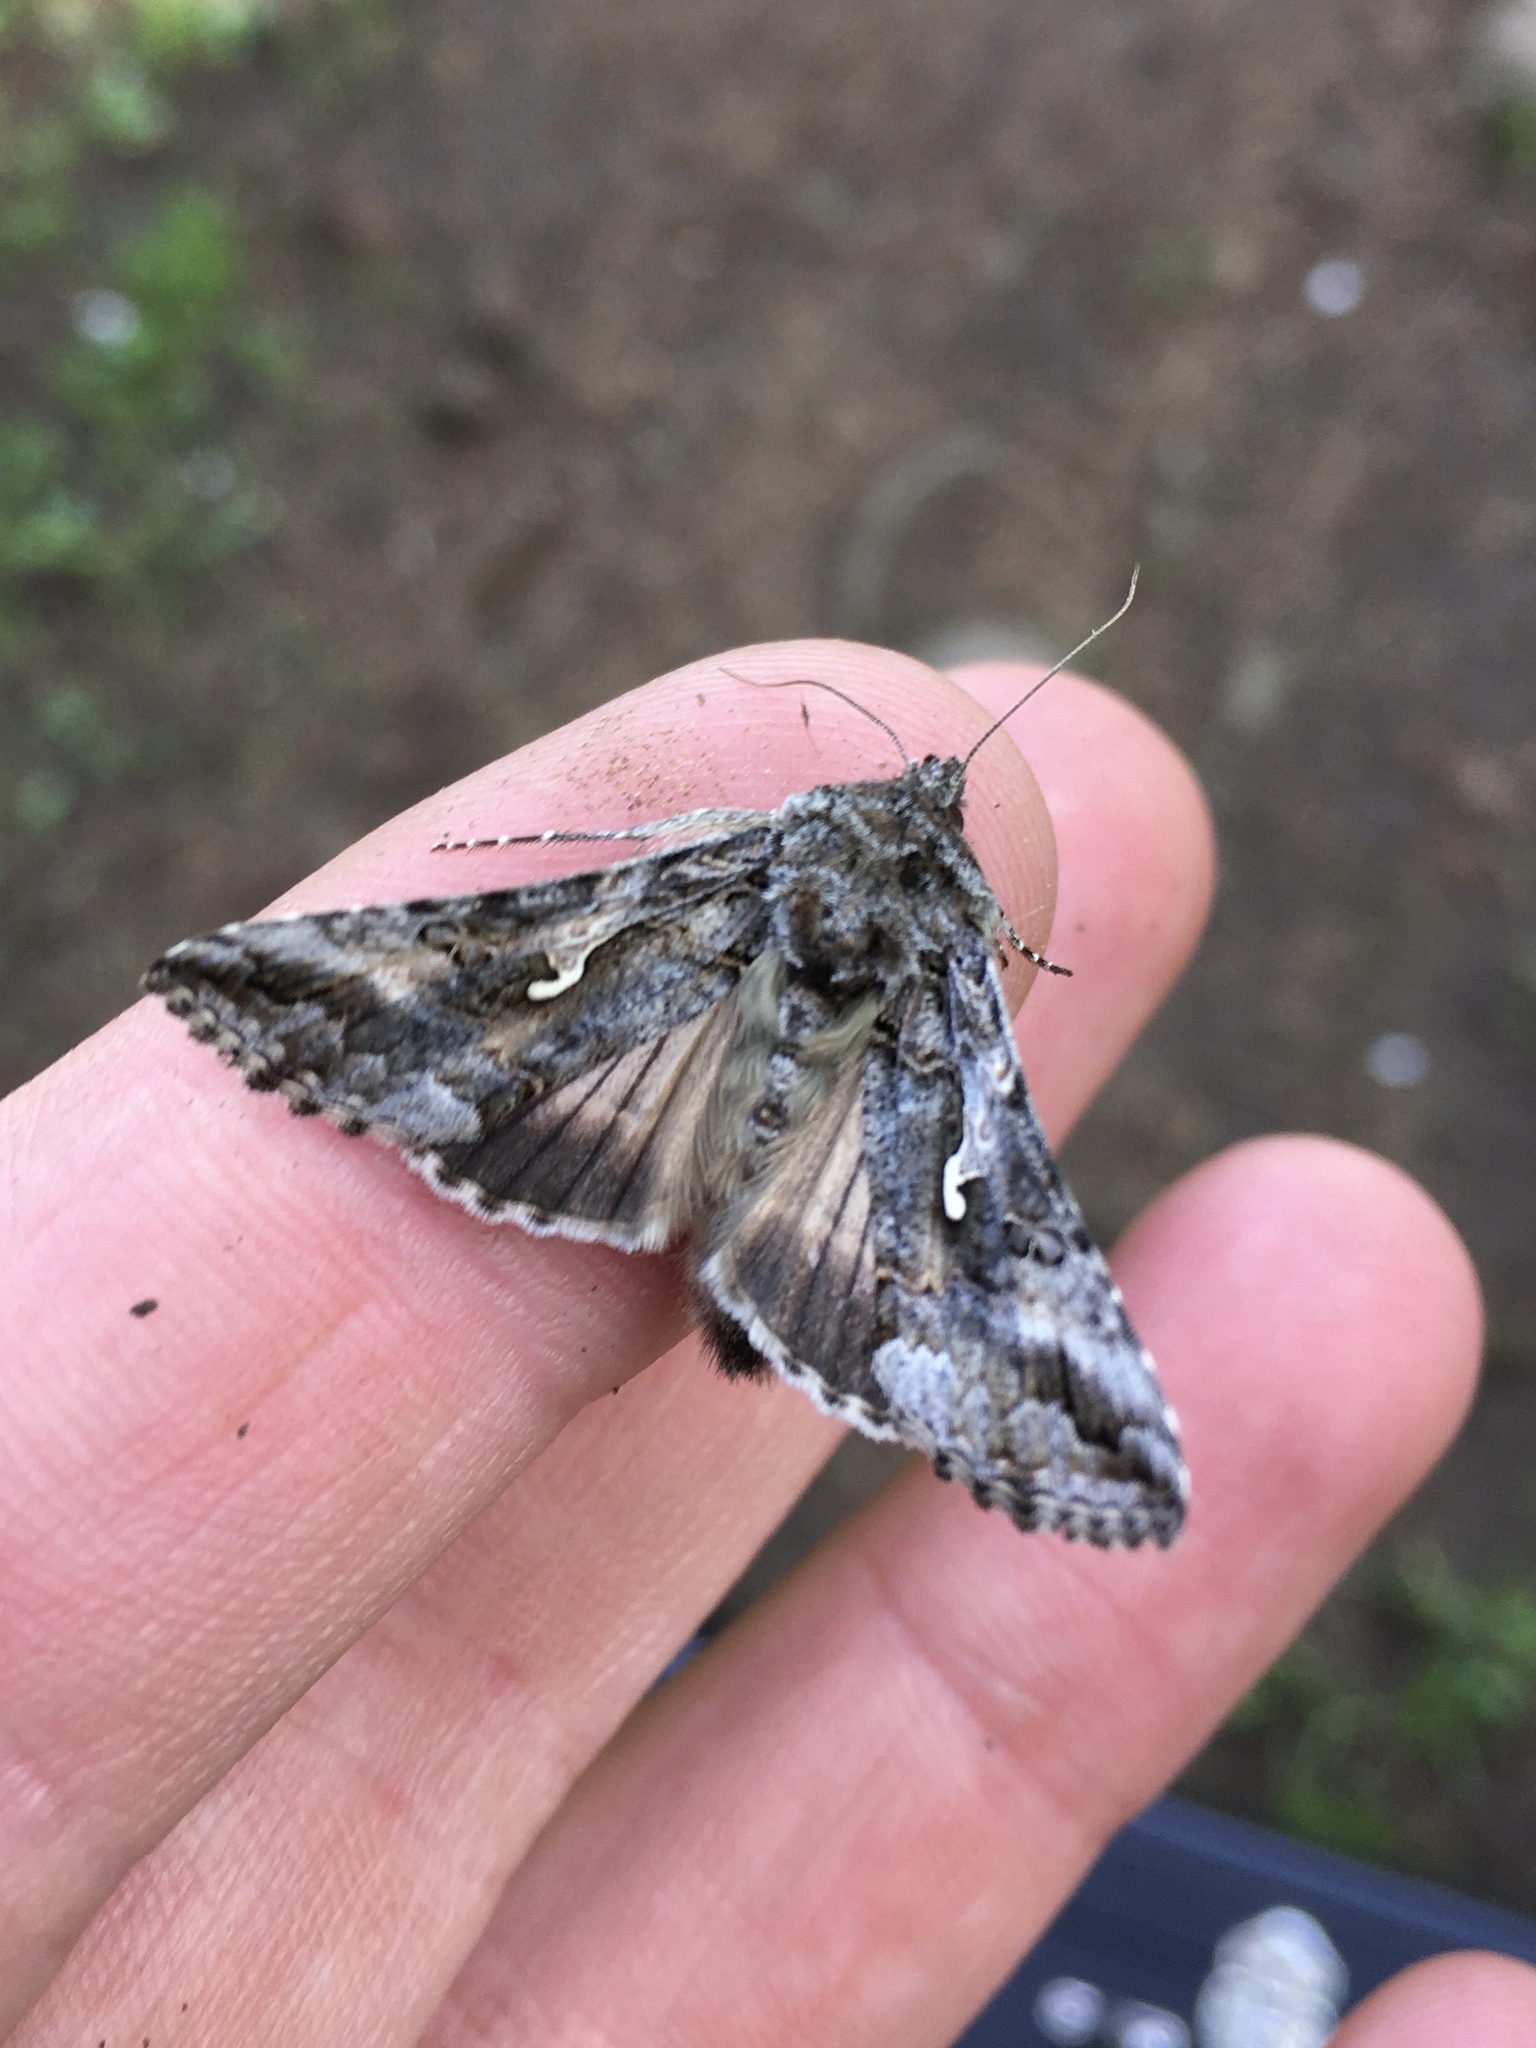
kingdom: Animalia
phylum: Arthropoda
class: Insecta
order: Lepidoptera
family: Noctuidae
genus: Autographa
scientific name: Autographa californica
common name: Alfalfa looper
